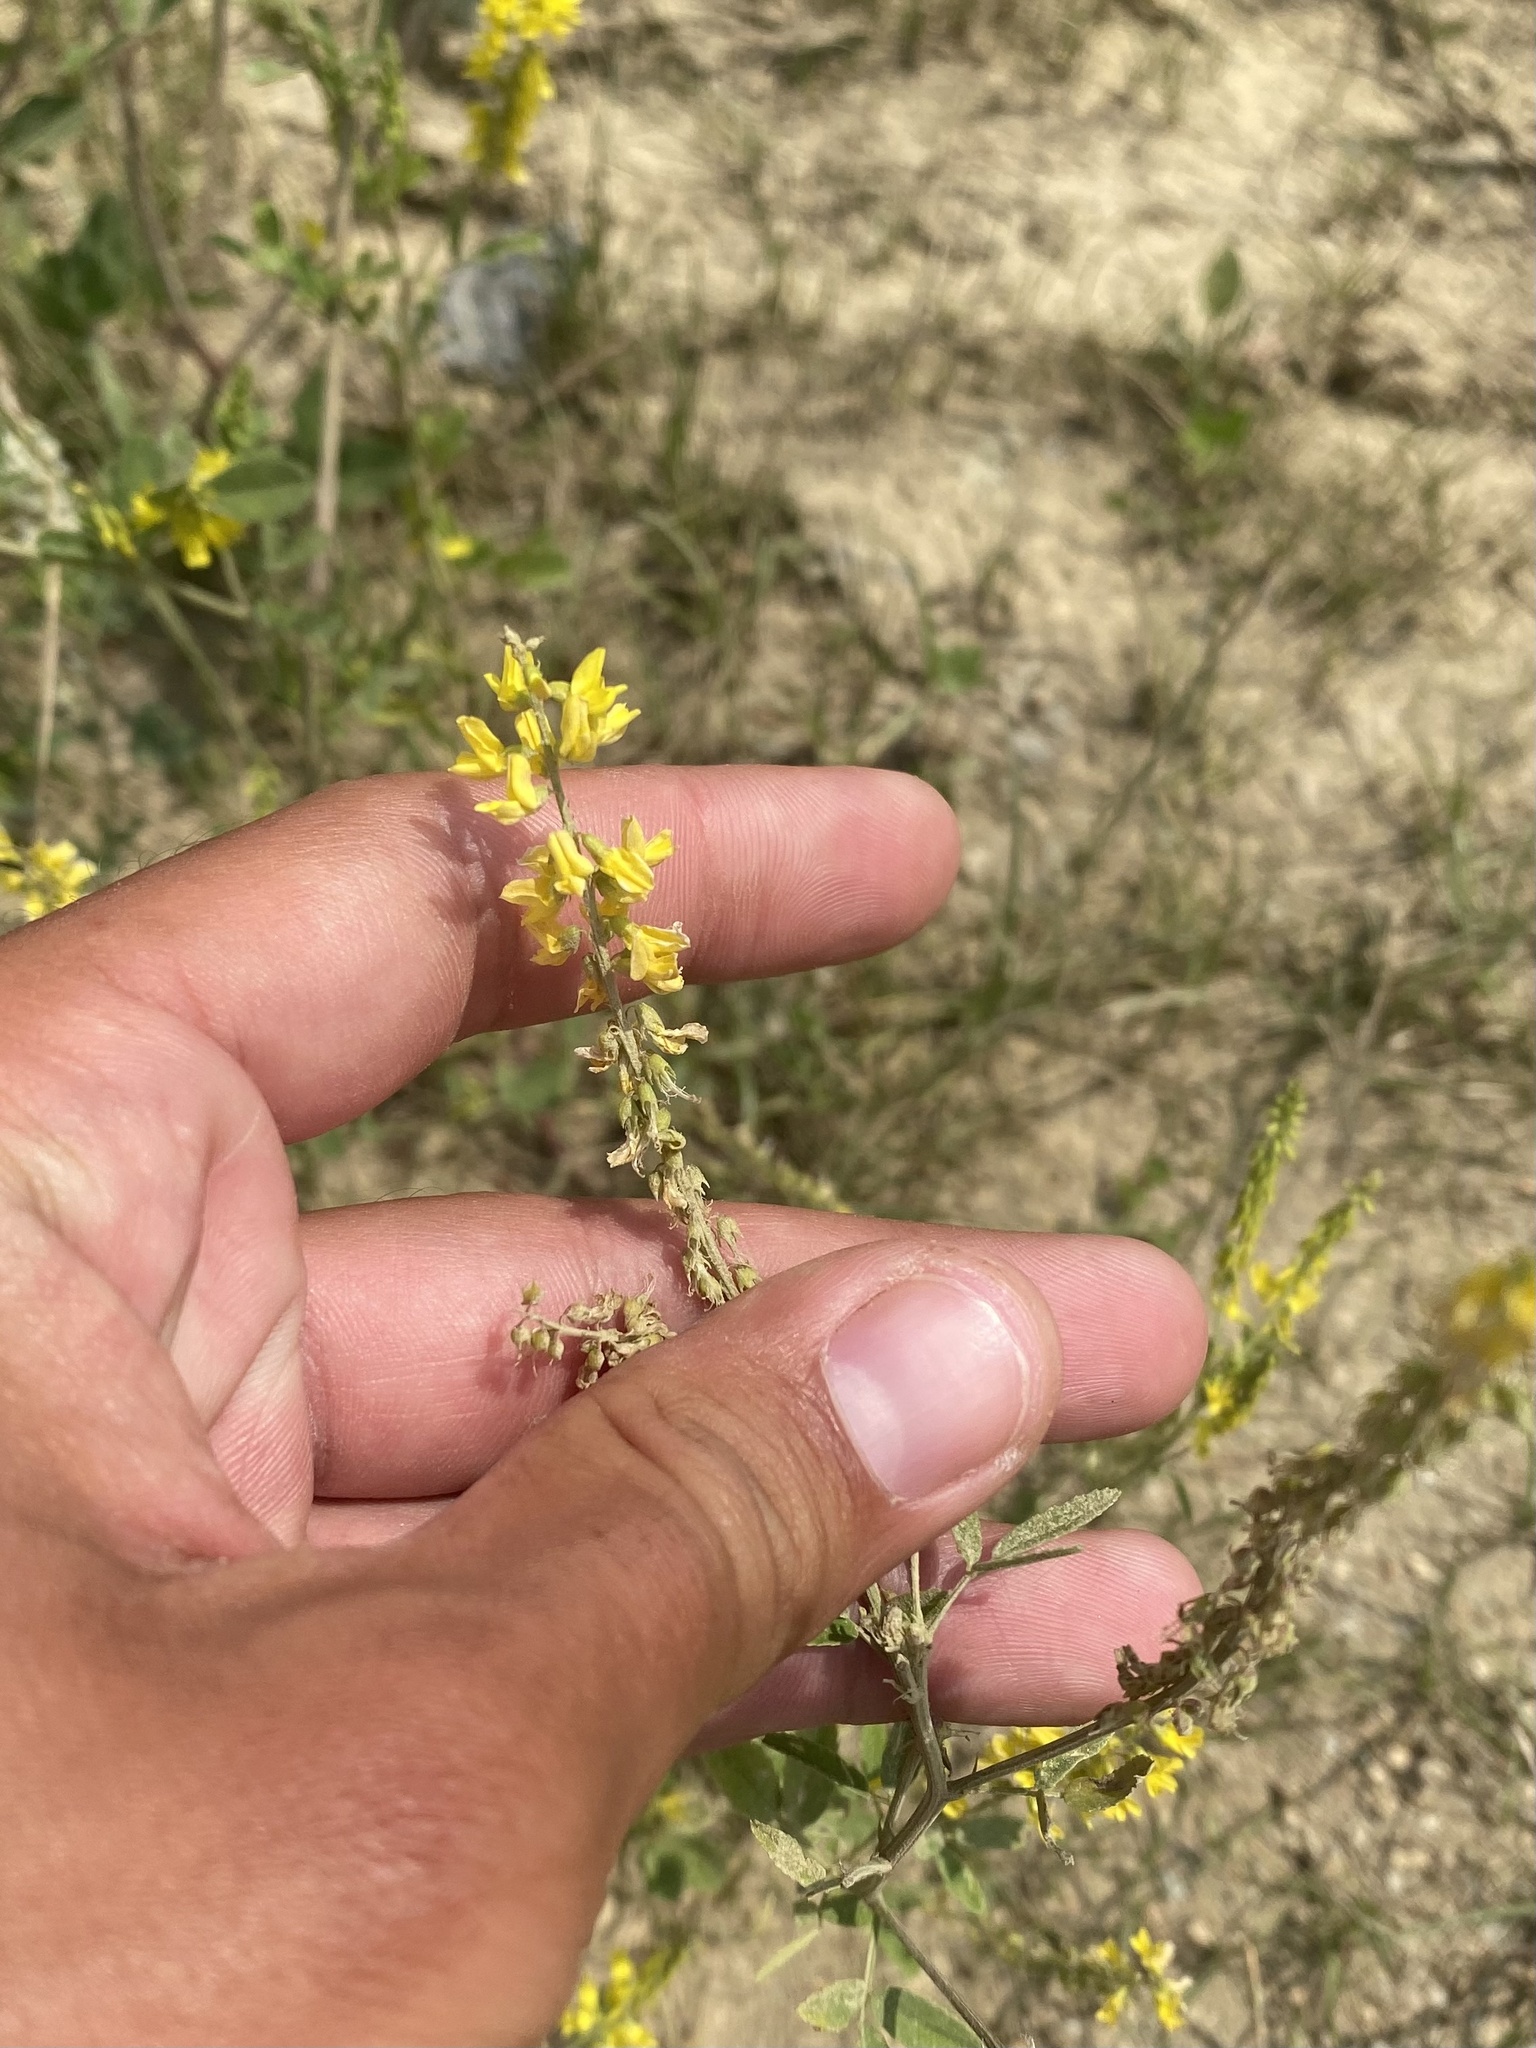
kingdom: Plantae
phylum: Tracheophyta
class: Magnoliopsida
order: Fabales
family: Fabaceae
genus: Melilotus
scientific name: Melilotus officinalis
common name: Sweetclover
